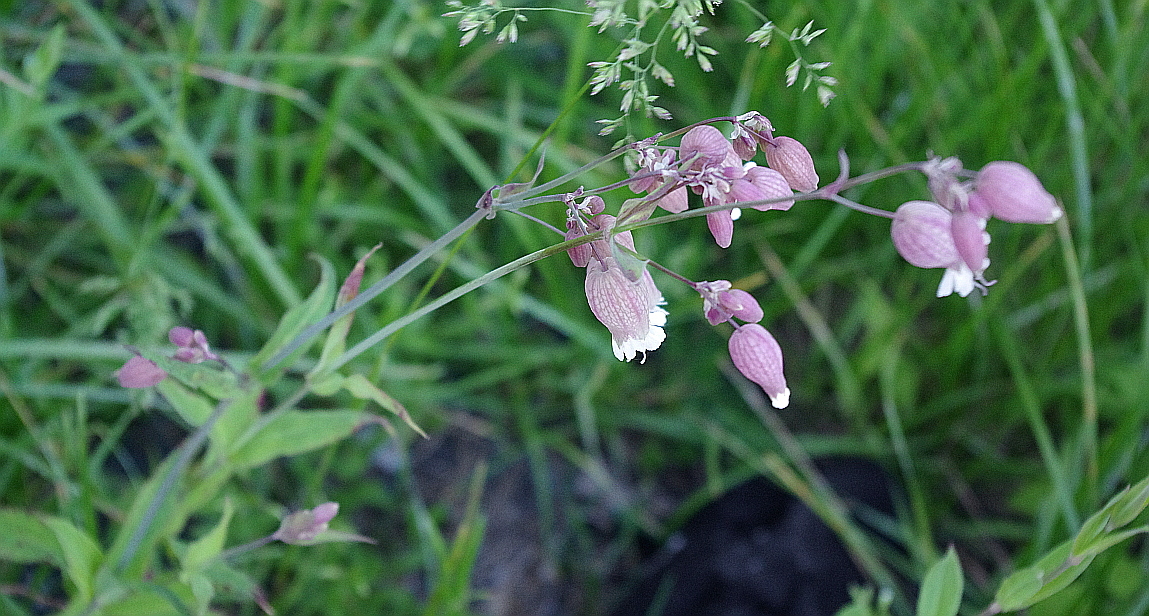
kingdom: Plantae
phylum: Tracheophyta
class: Magnoliopsida
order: Caryophyllales
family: Caryophyllaceae
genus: Silene
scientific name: Silene vulgaris
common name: Bladder campion
